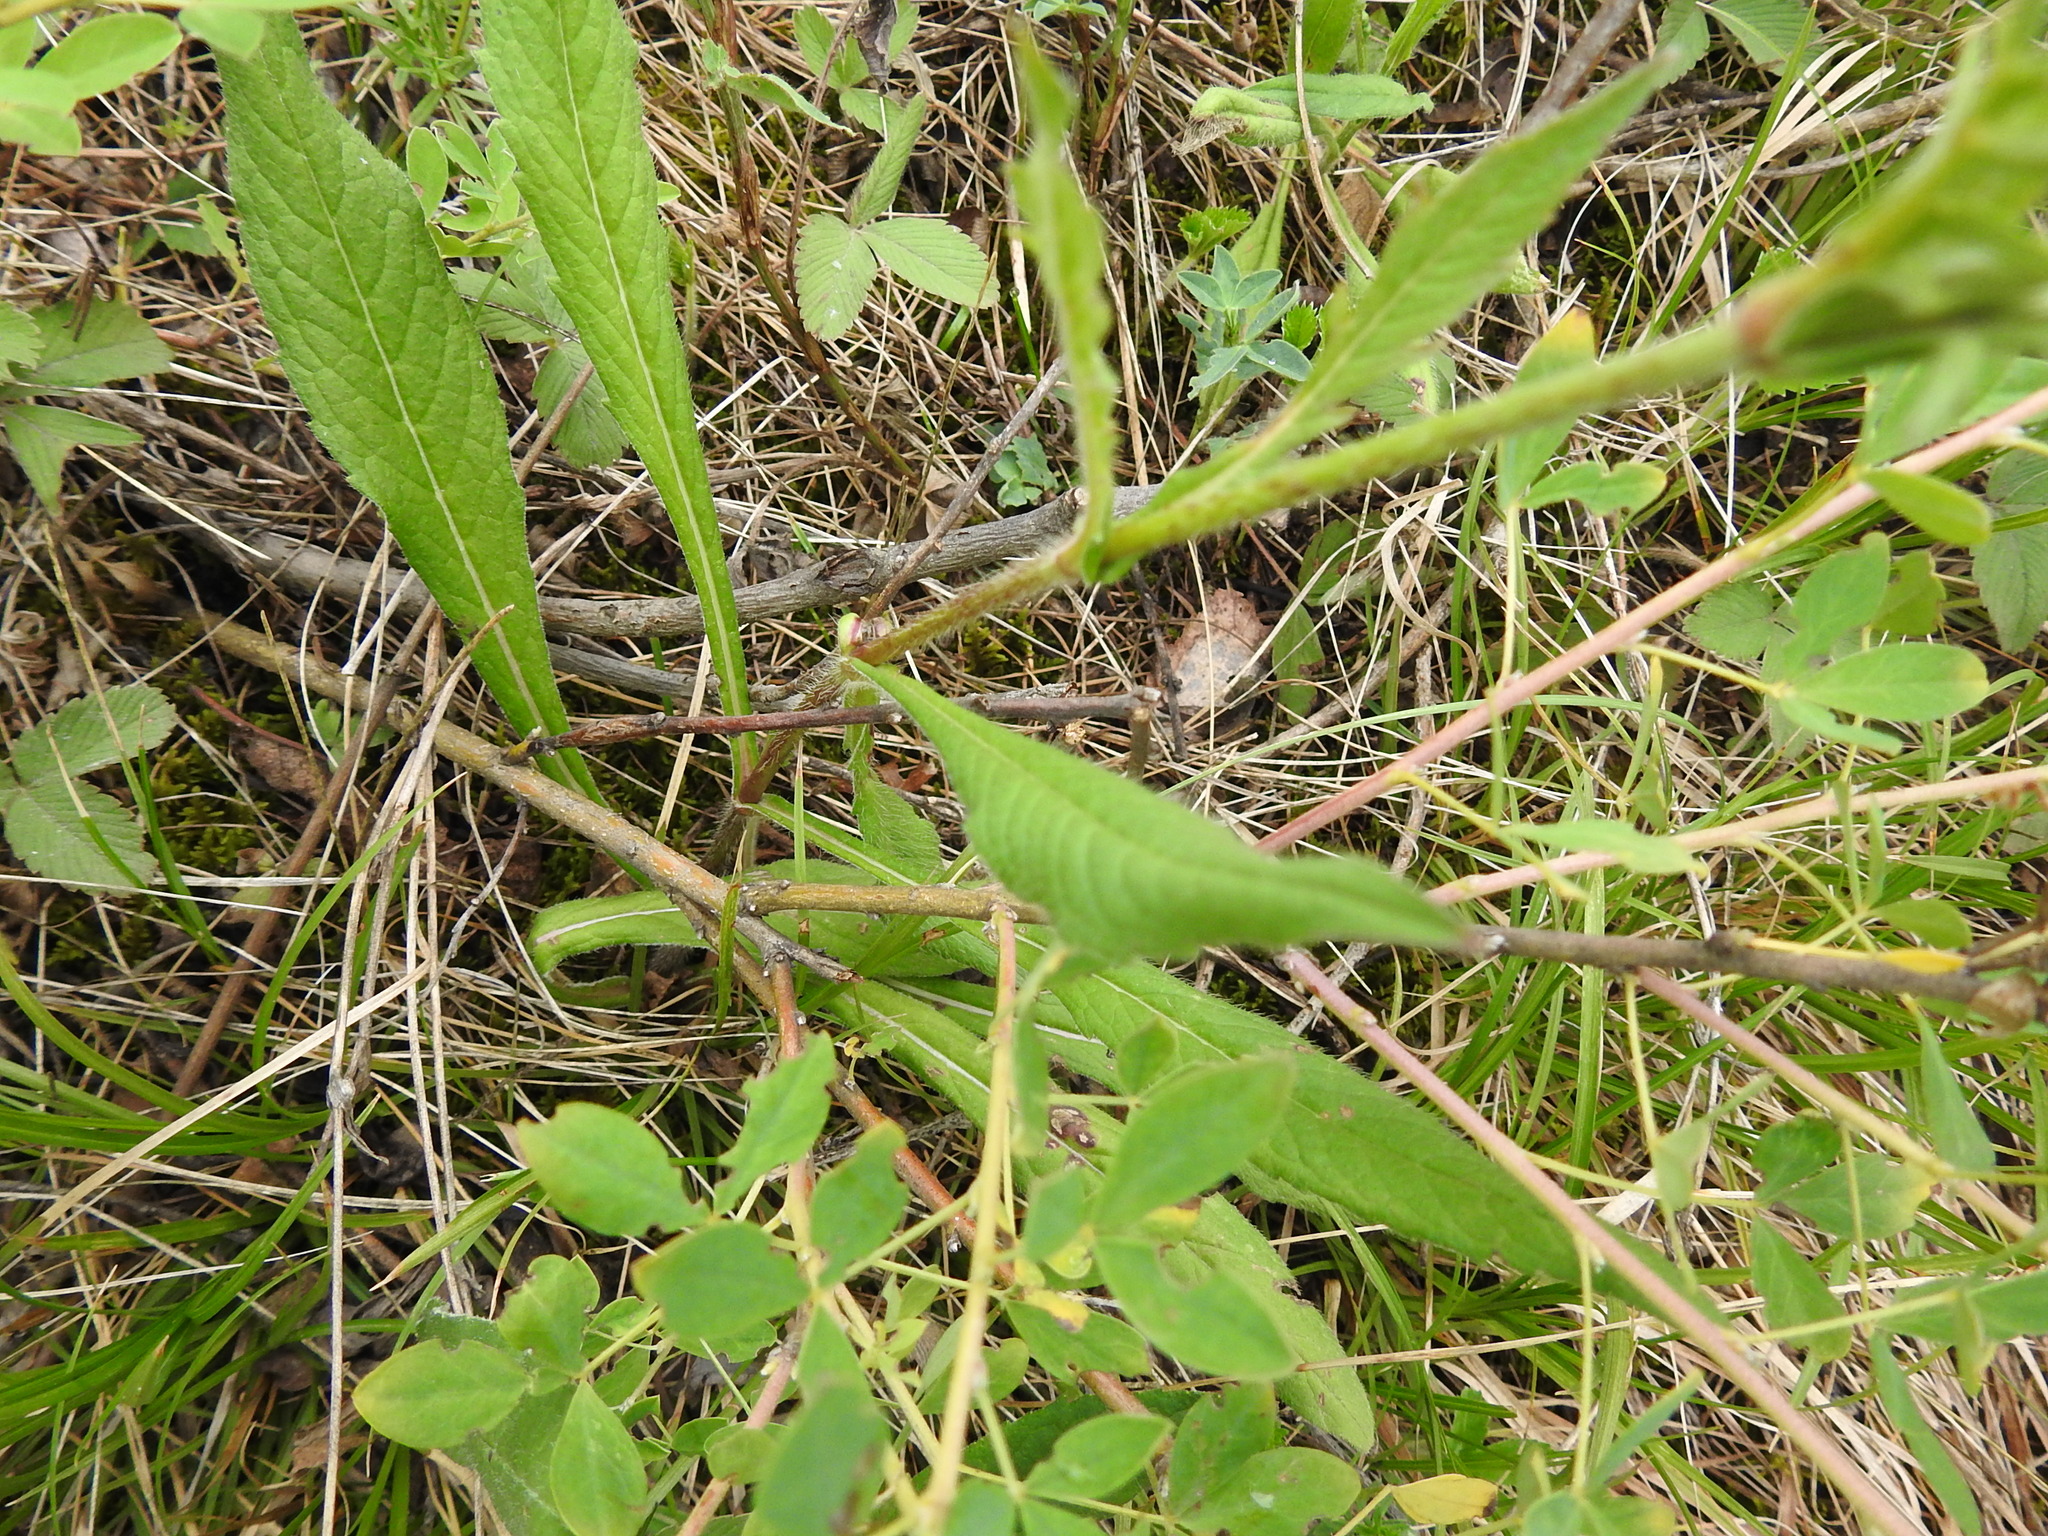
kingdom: Plantae
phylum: Tracheophyta
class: Magnoliopsida
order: Dipsacales
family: Caprifoliaceae
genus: Knautia
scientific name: Knautia arvensis
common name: Field scabiosa
